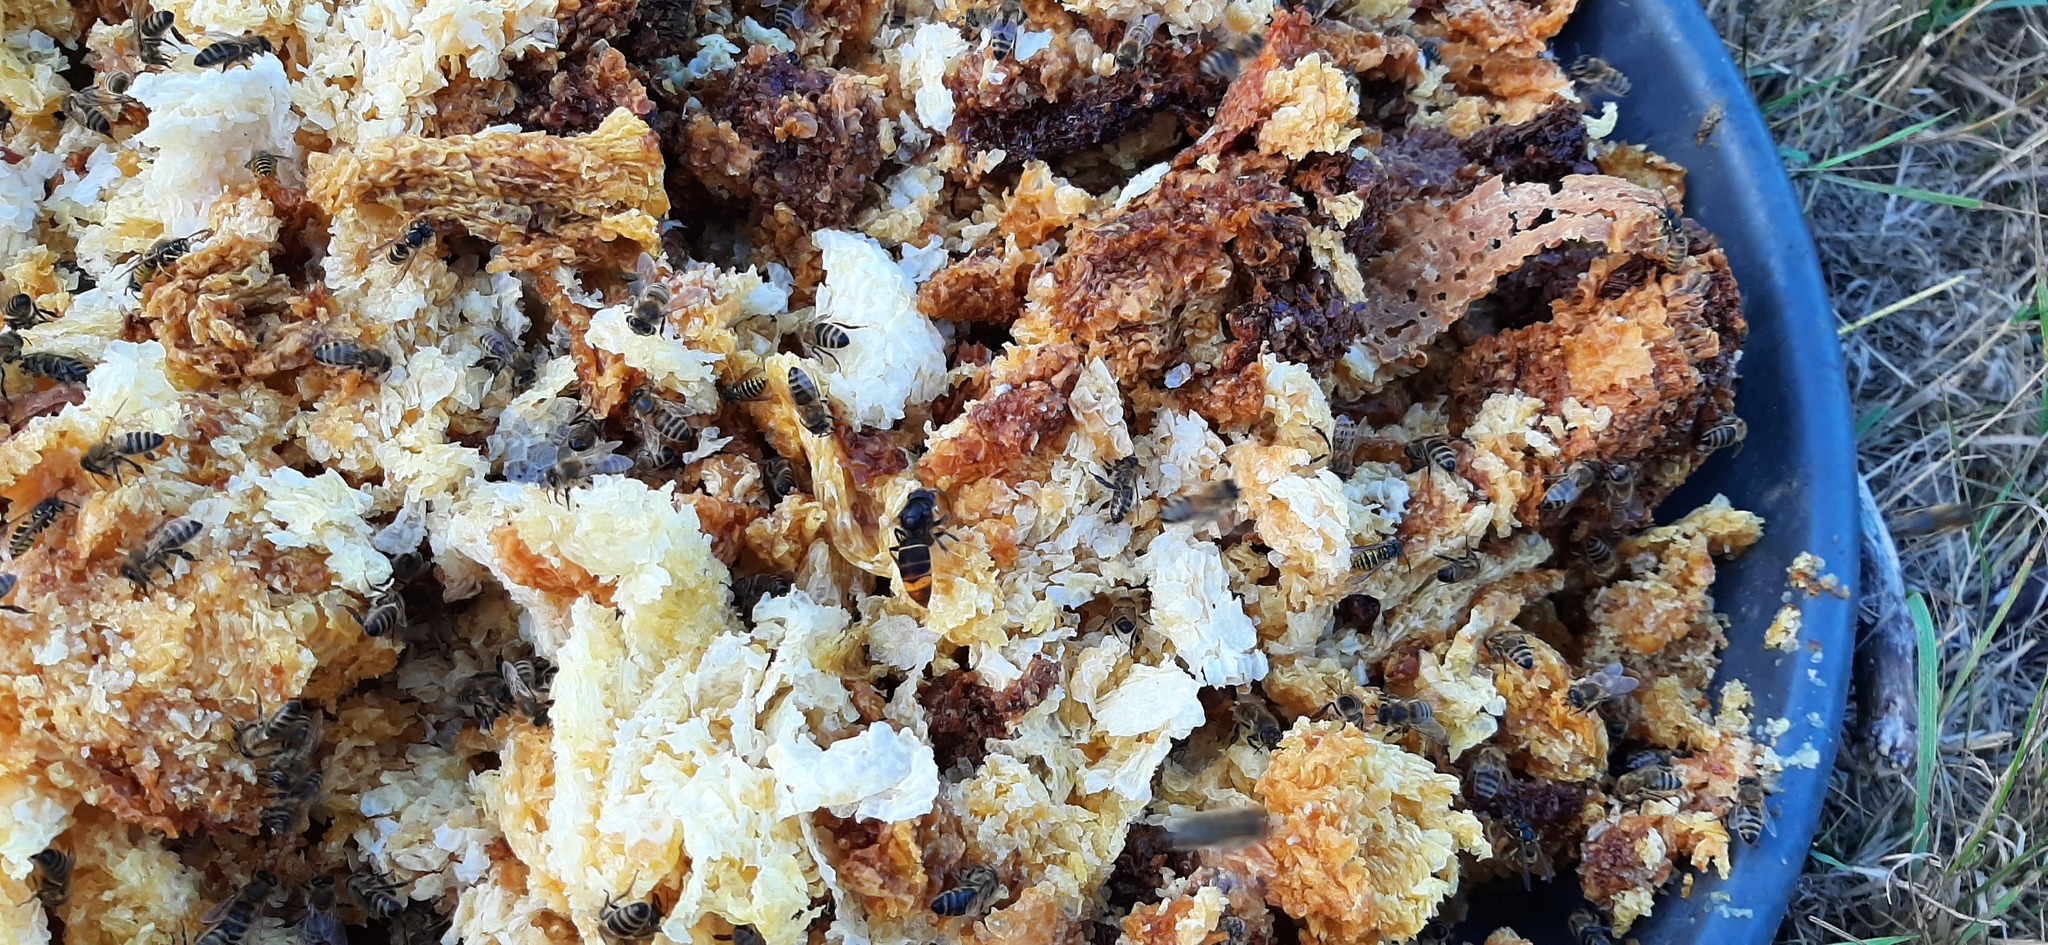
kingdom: Animalia
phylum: Arthropoda
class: Insecta
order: Hymenoptera
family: Vespidae
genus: Vespa
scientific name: Vespa velutina
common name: Asian hornet
